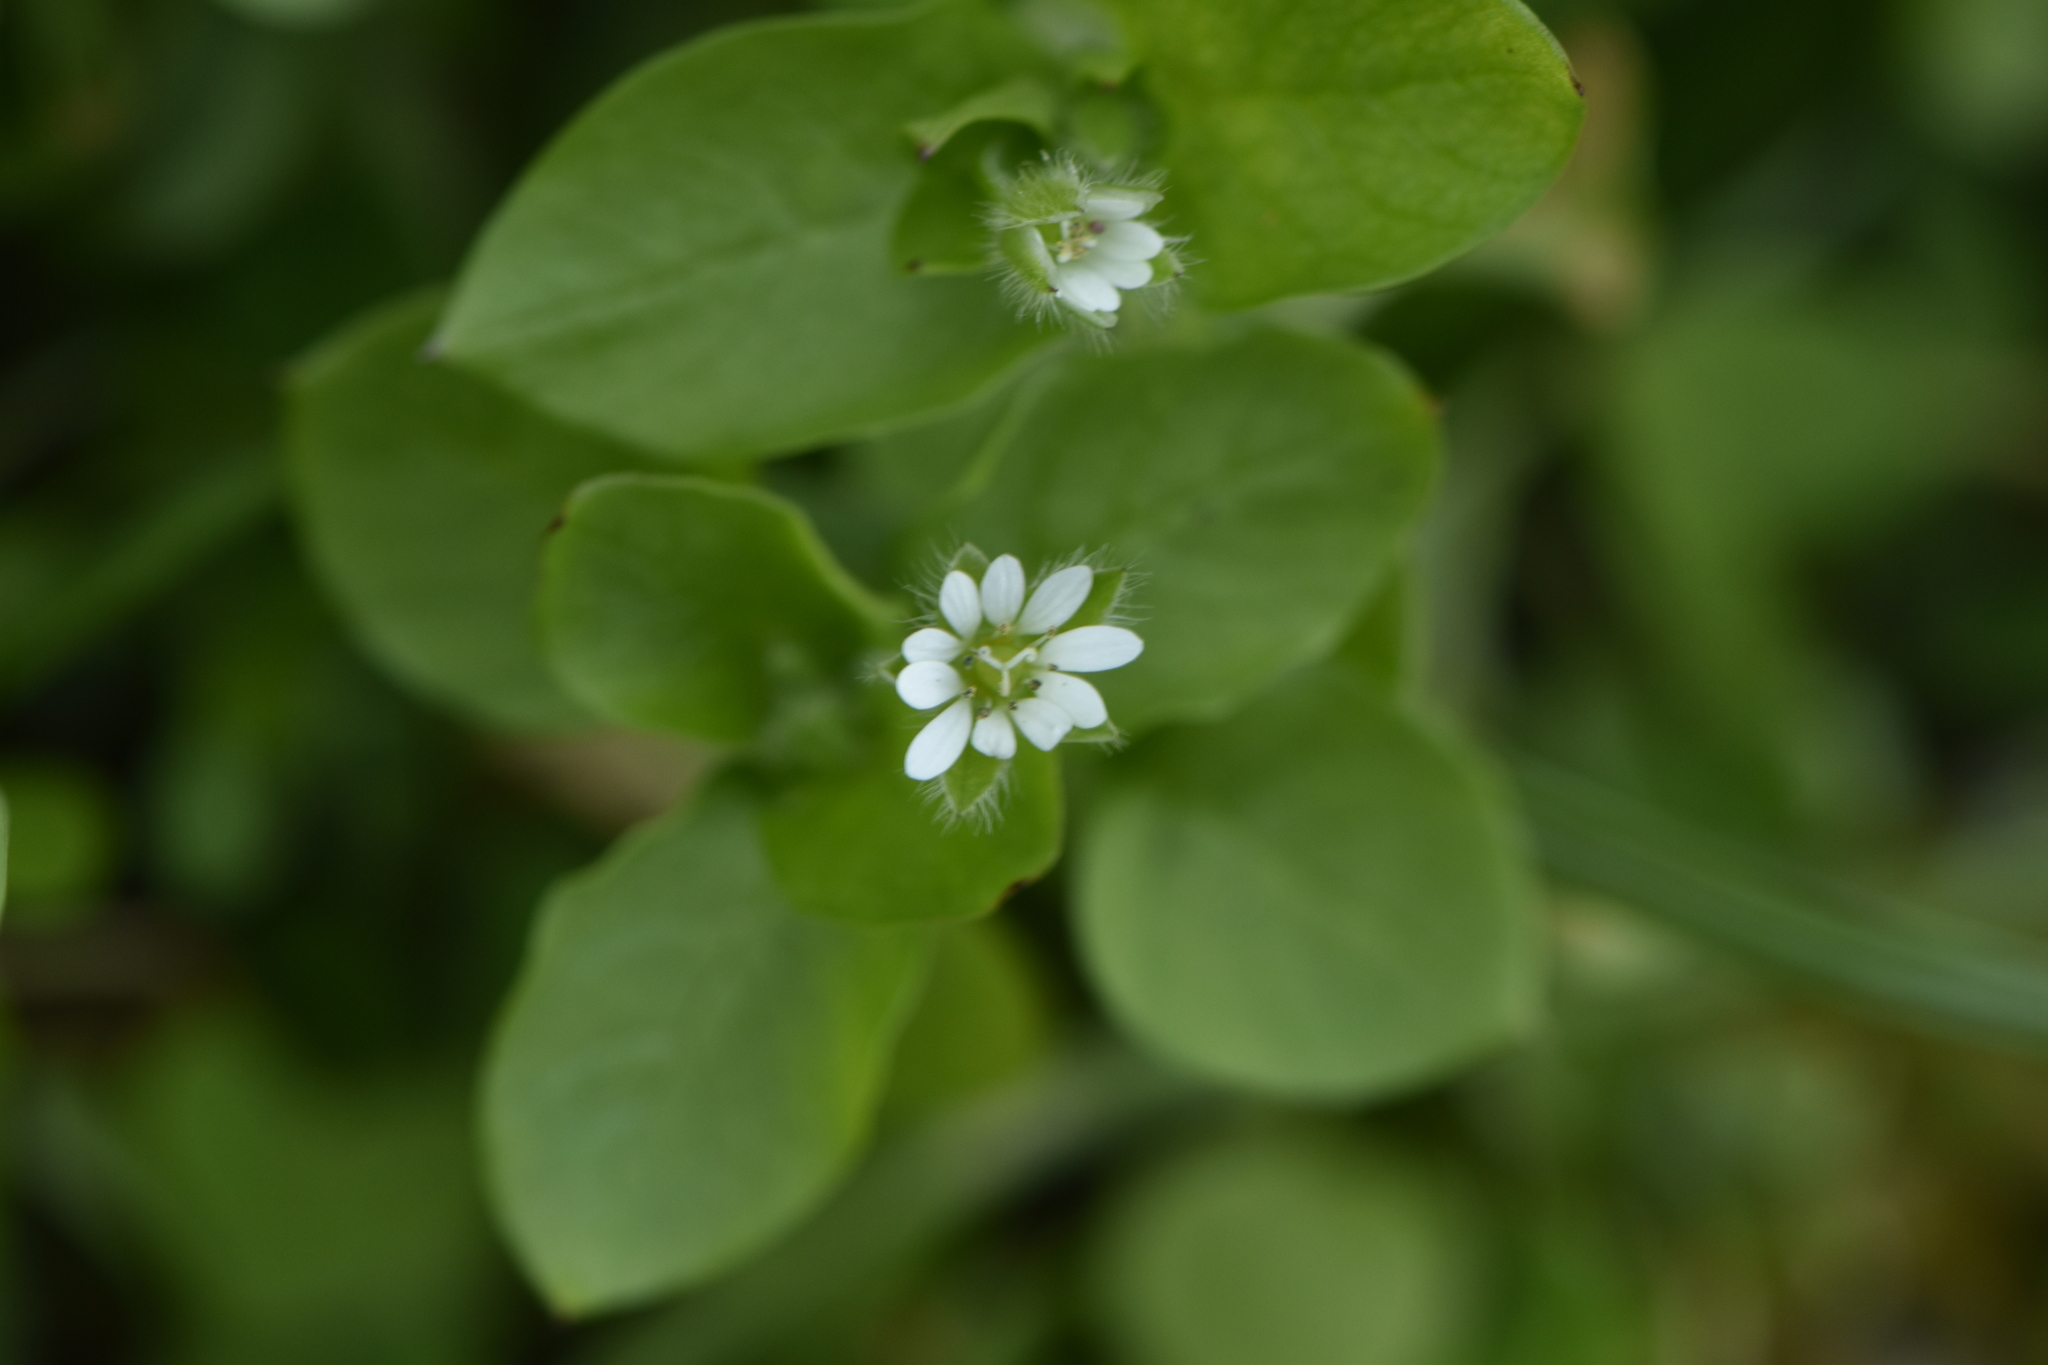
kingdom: Plantae
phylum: Tracheophyta
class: Magnoliopsida
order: Caryophyllales
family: Caryophyllaceae
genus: Stellaria
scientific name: Stellaria media
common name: Common chickweed
